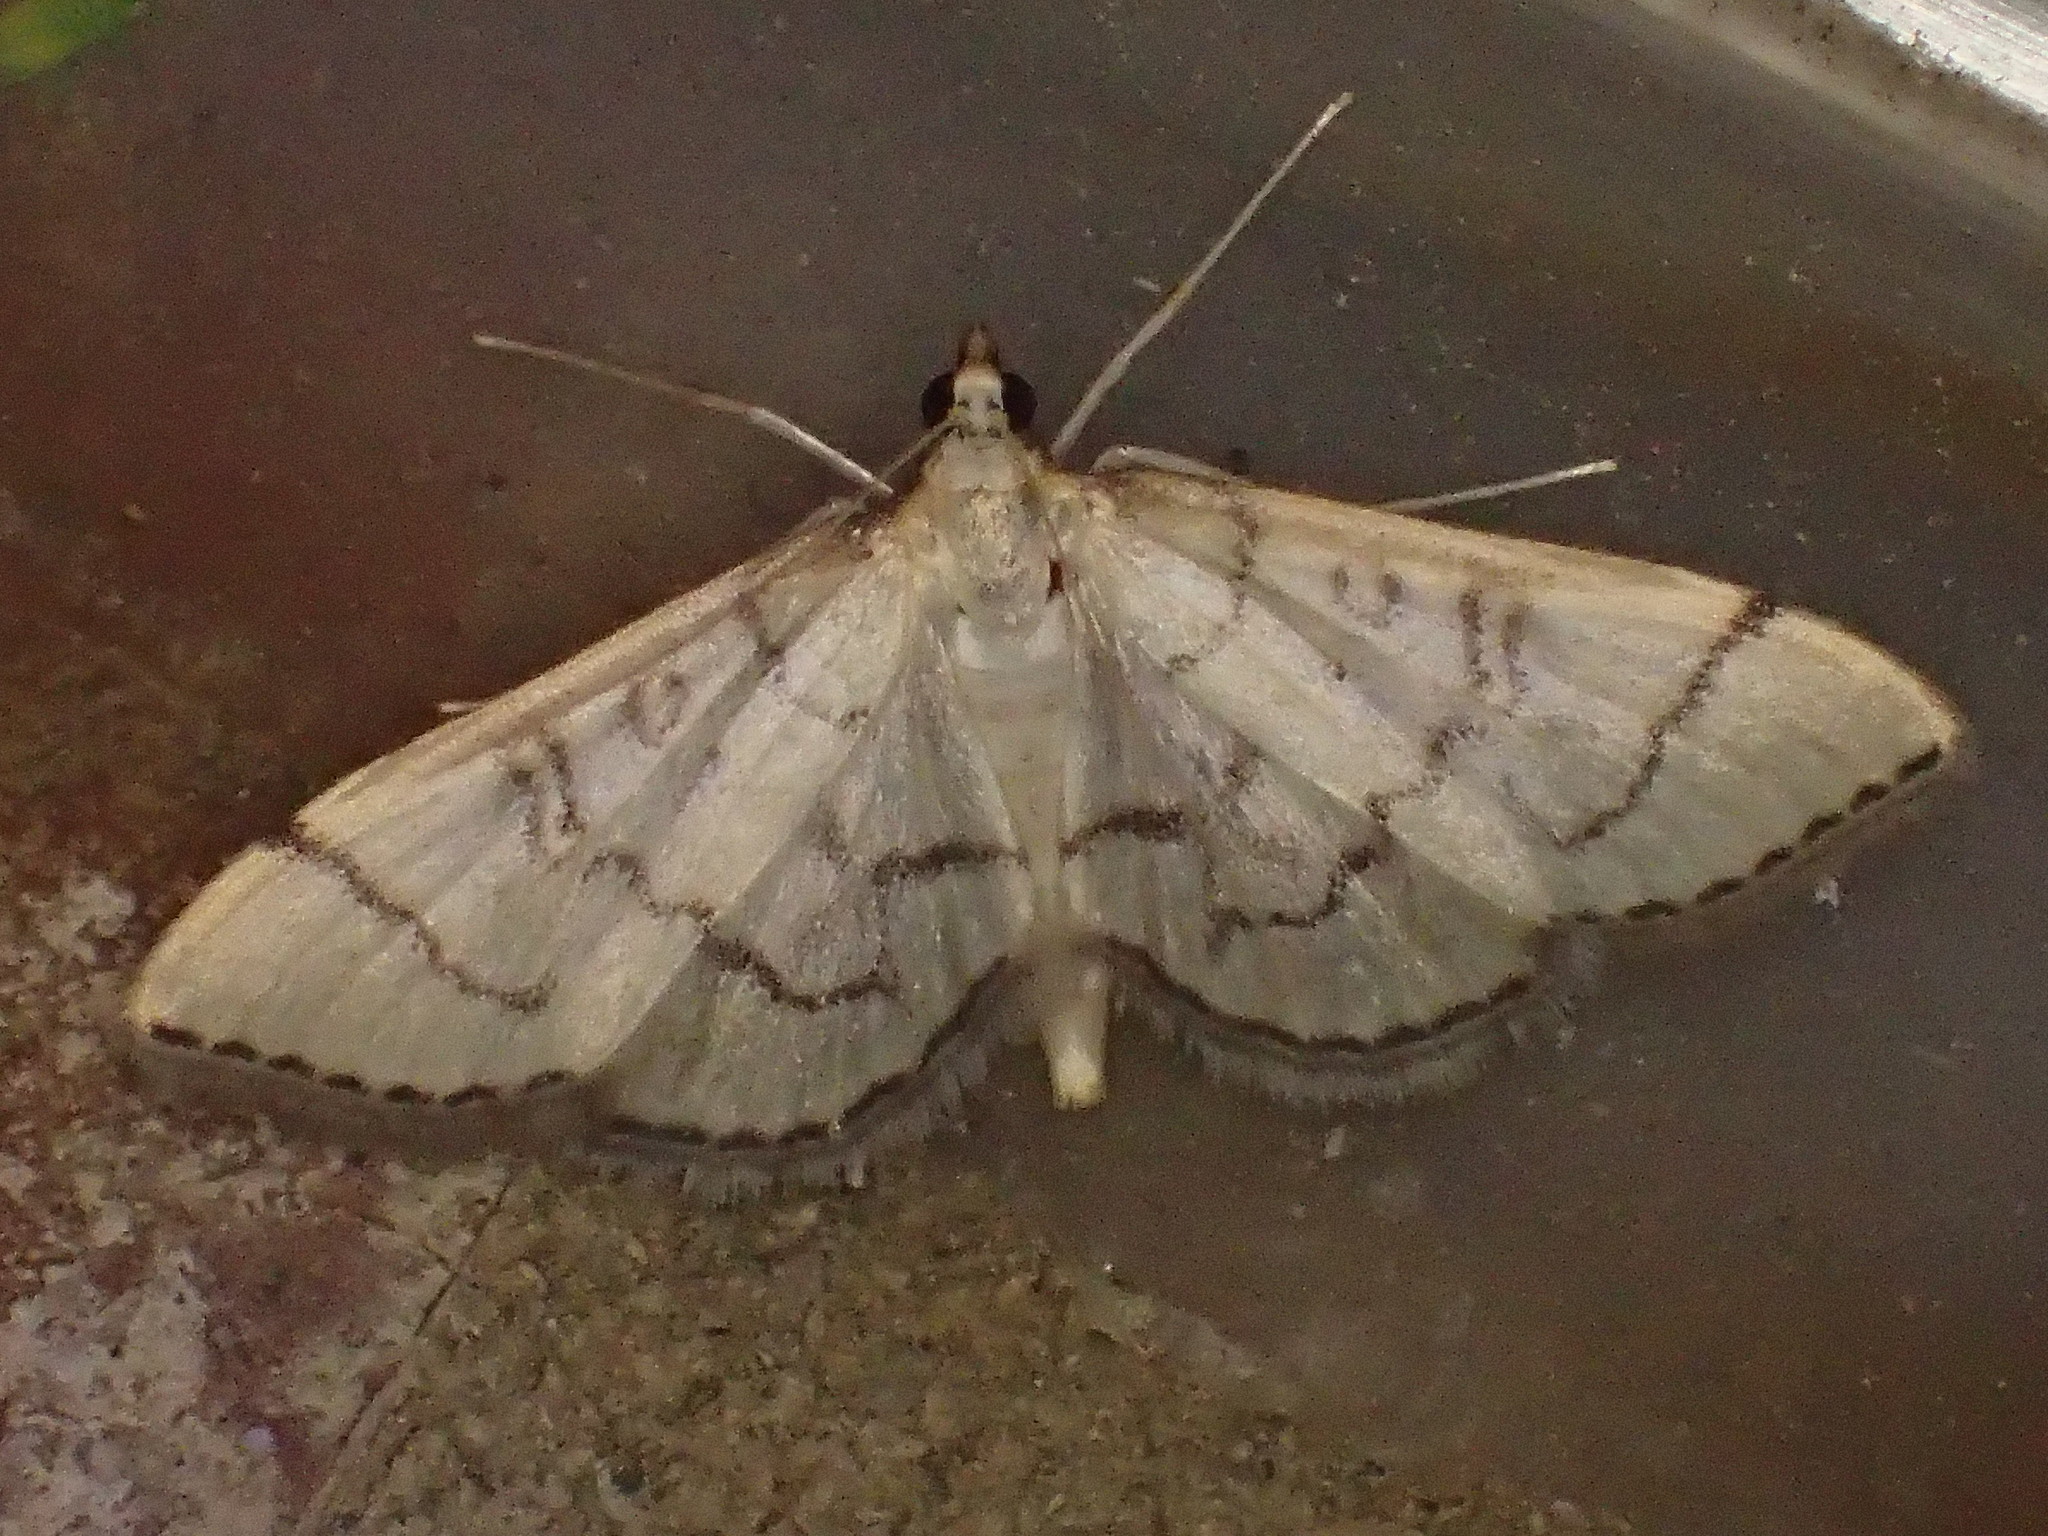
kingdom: Animalia
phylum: Arthropoda
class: Insecta
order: Lepidoptera
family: Crambidae
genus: Lamprosema
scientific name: Lamprosema Blepharomastix ranalis
